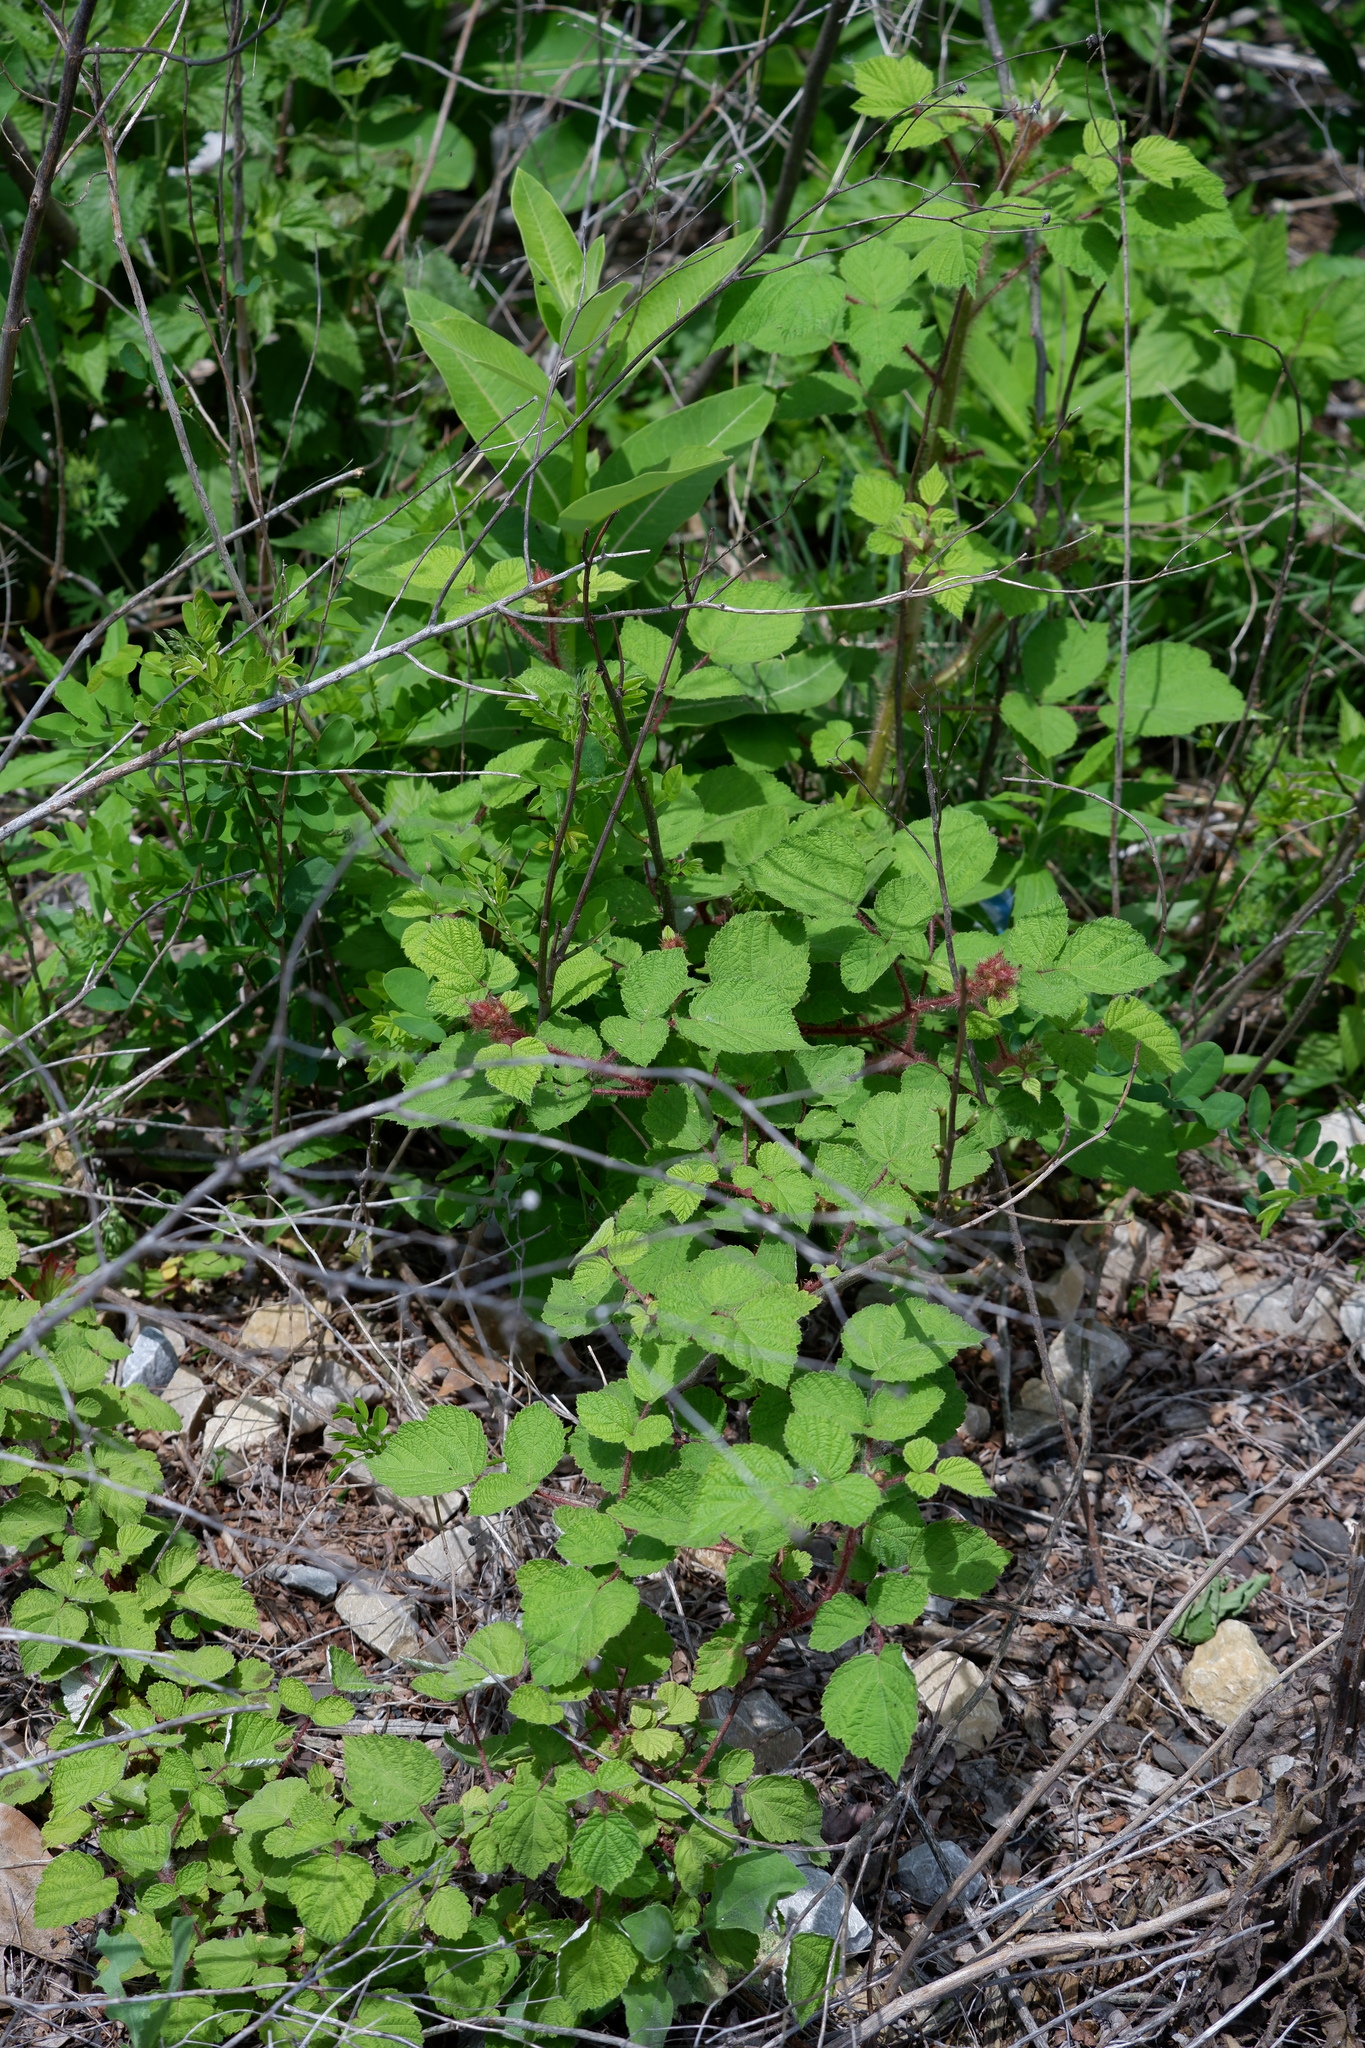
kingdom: Plantae
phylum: Tracheophyta
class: Magnoliopsida
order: Rosales
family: Rosaceae
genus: Rubus
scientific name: Rubus phoenicolasius
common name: Japanese wineberry
